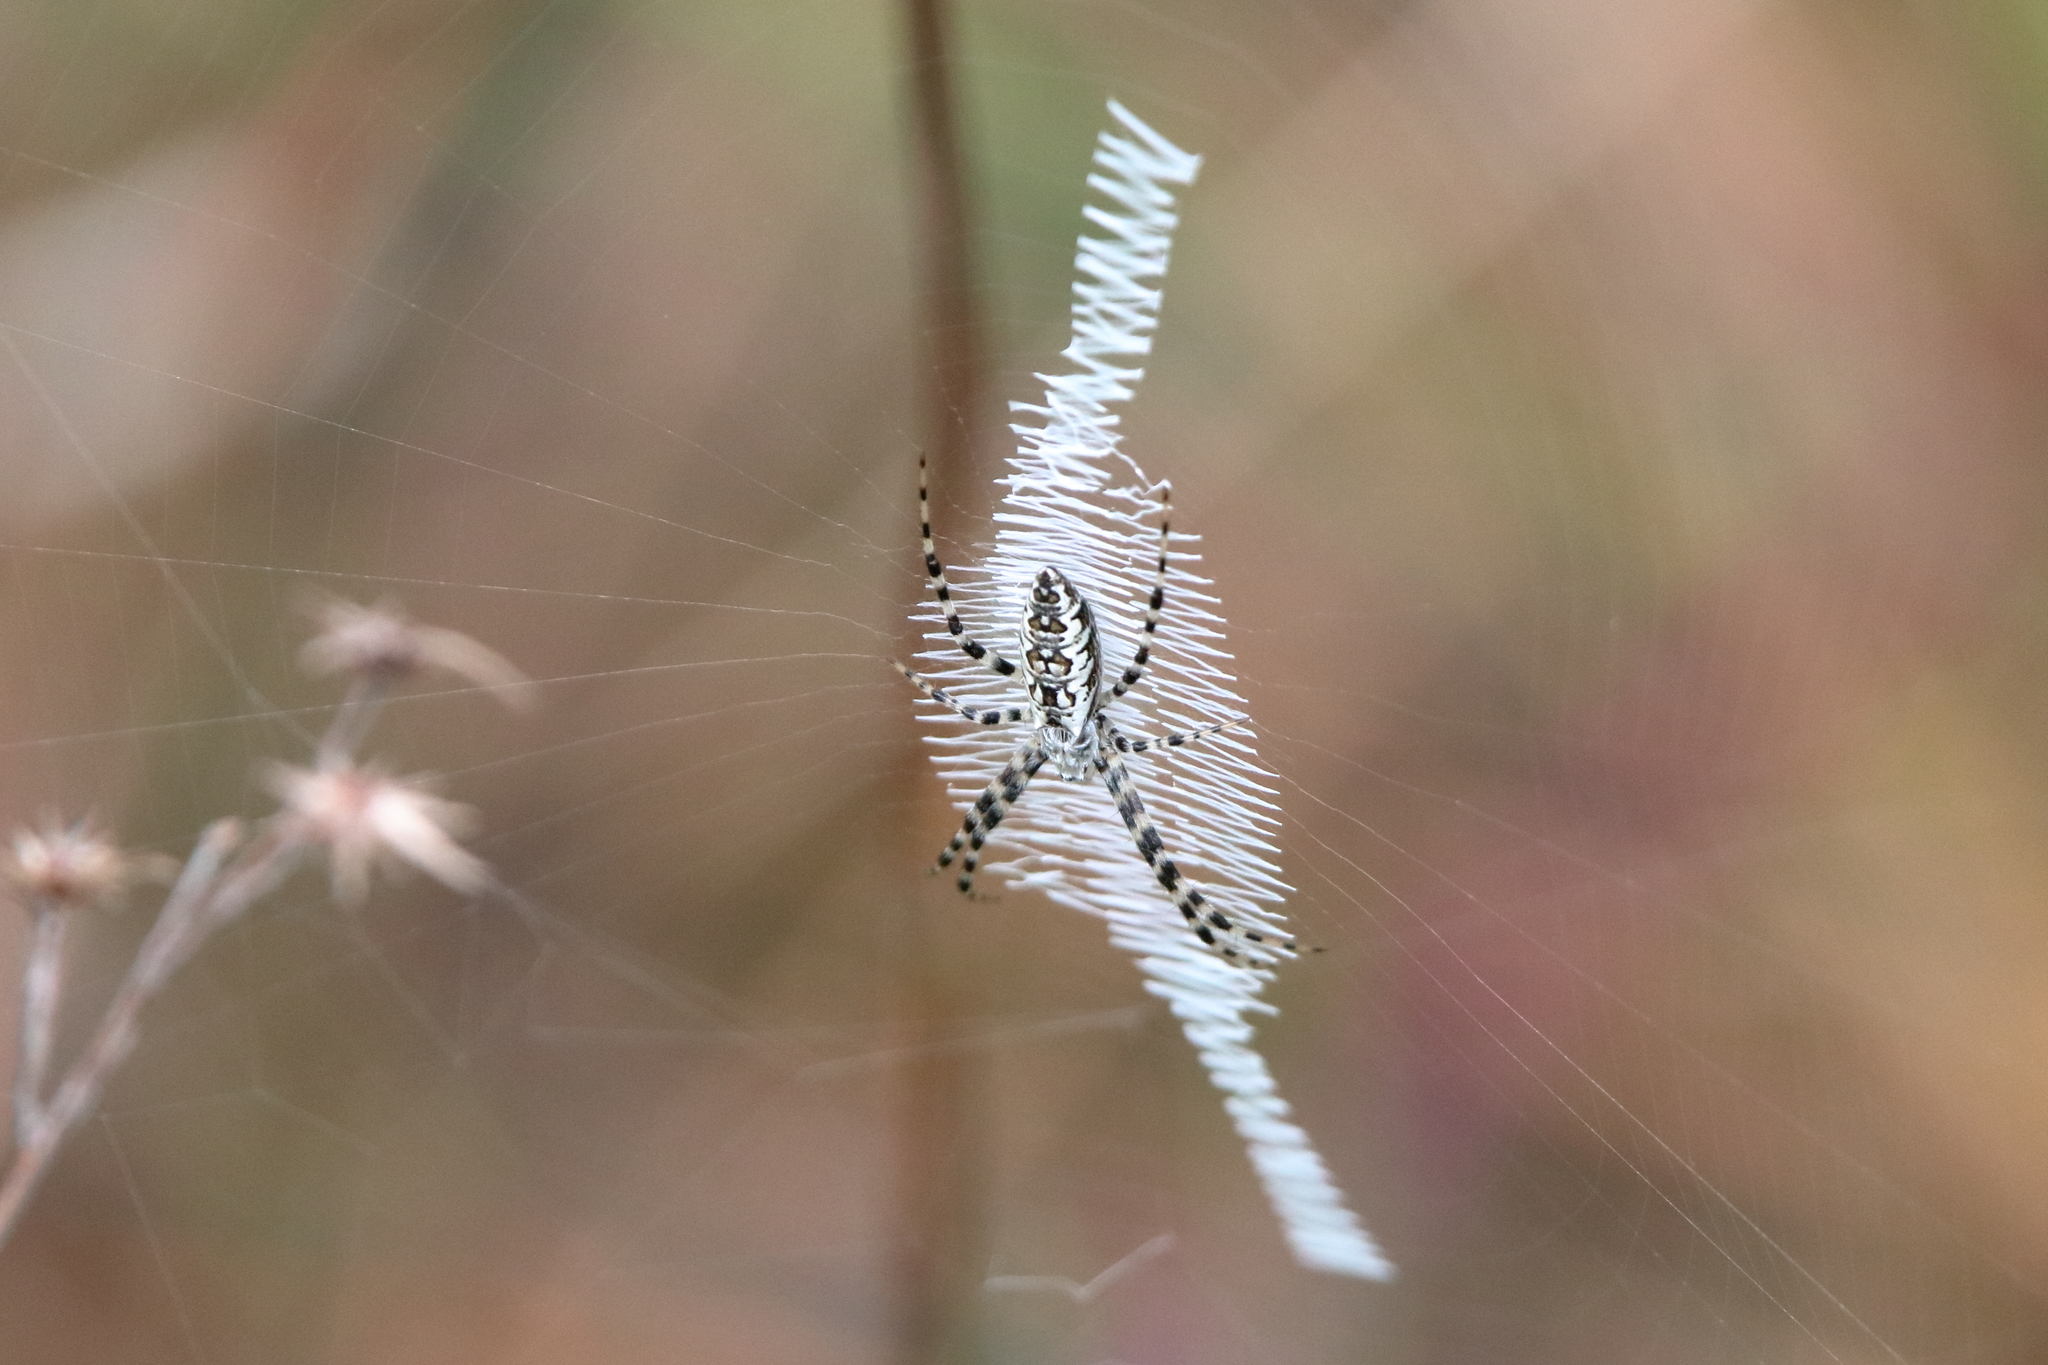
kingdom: Animalia
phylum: Arthropoda
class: Arachnida
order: Araneae
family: Araneidae
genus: Argiope
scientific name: Argiope aurantia
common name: Orb weavers
